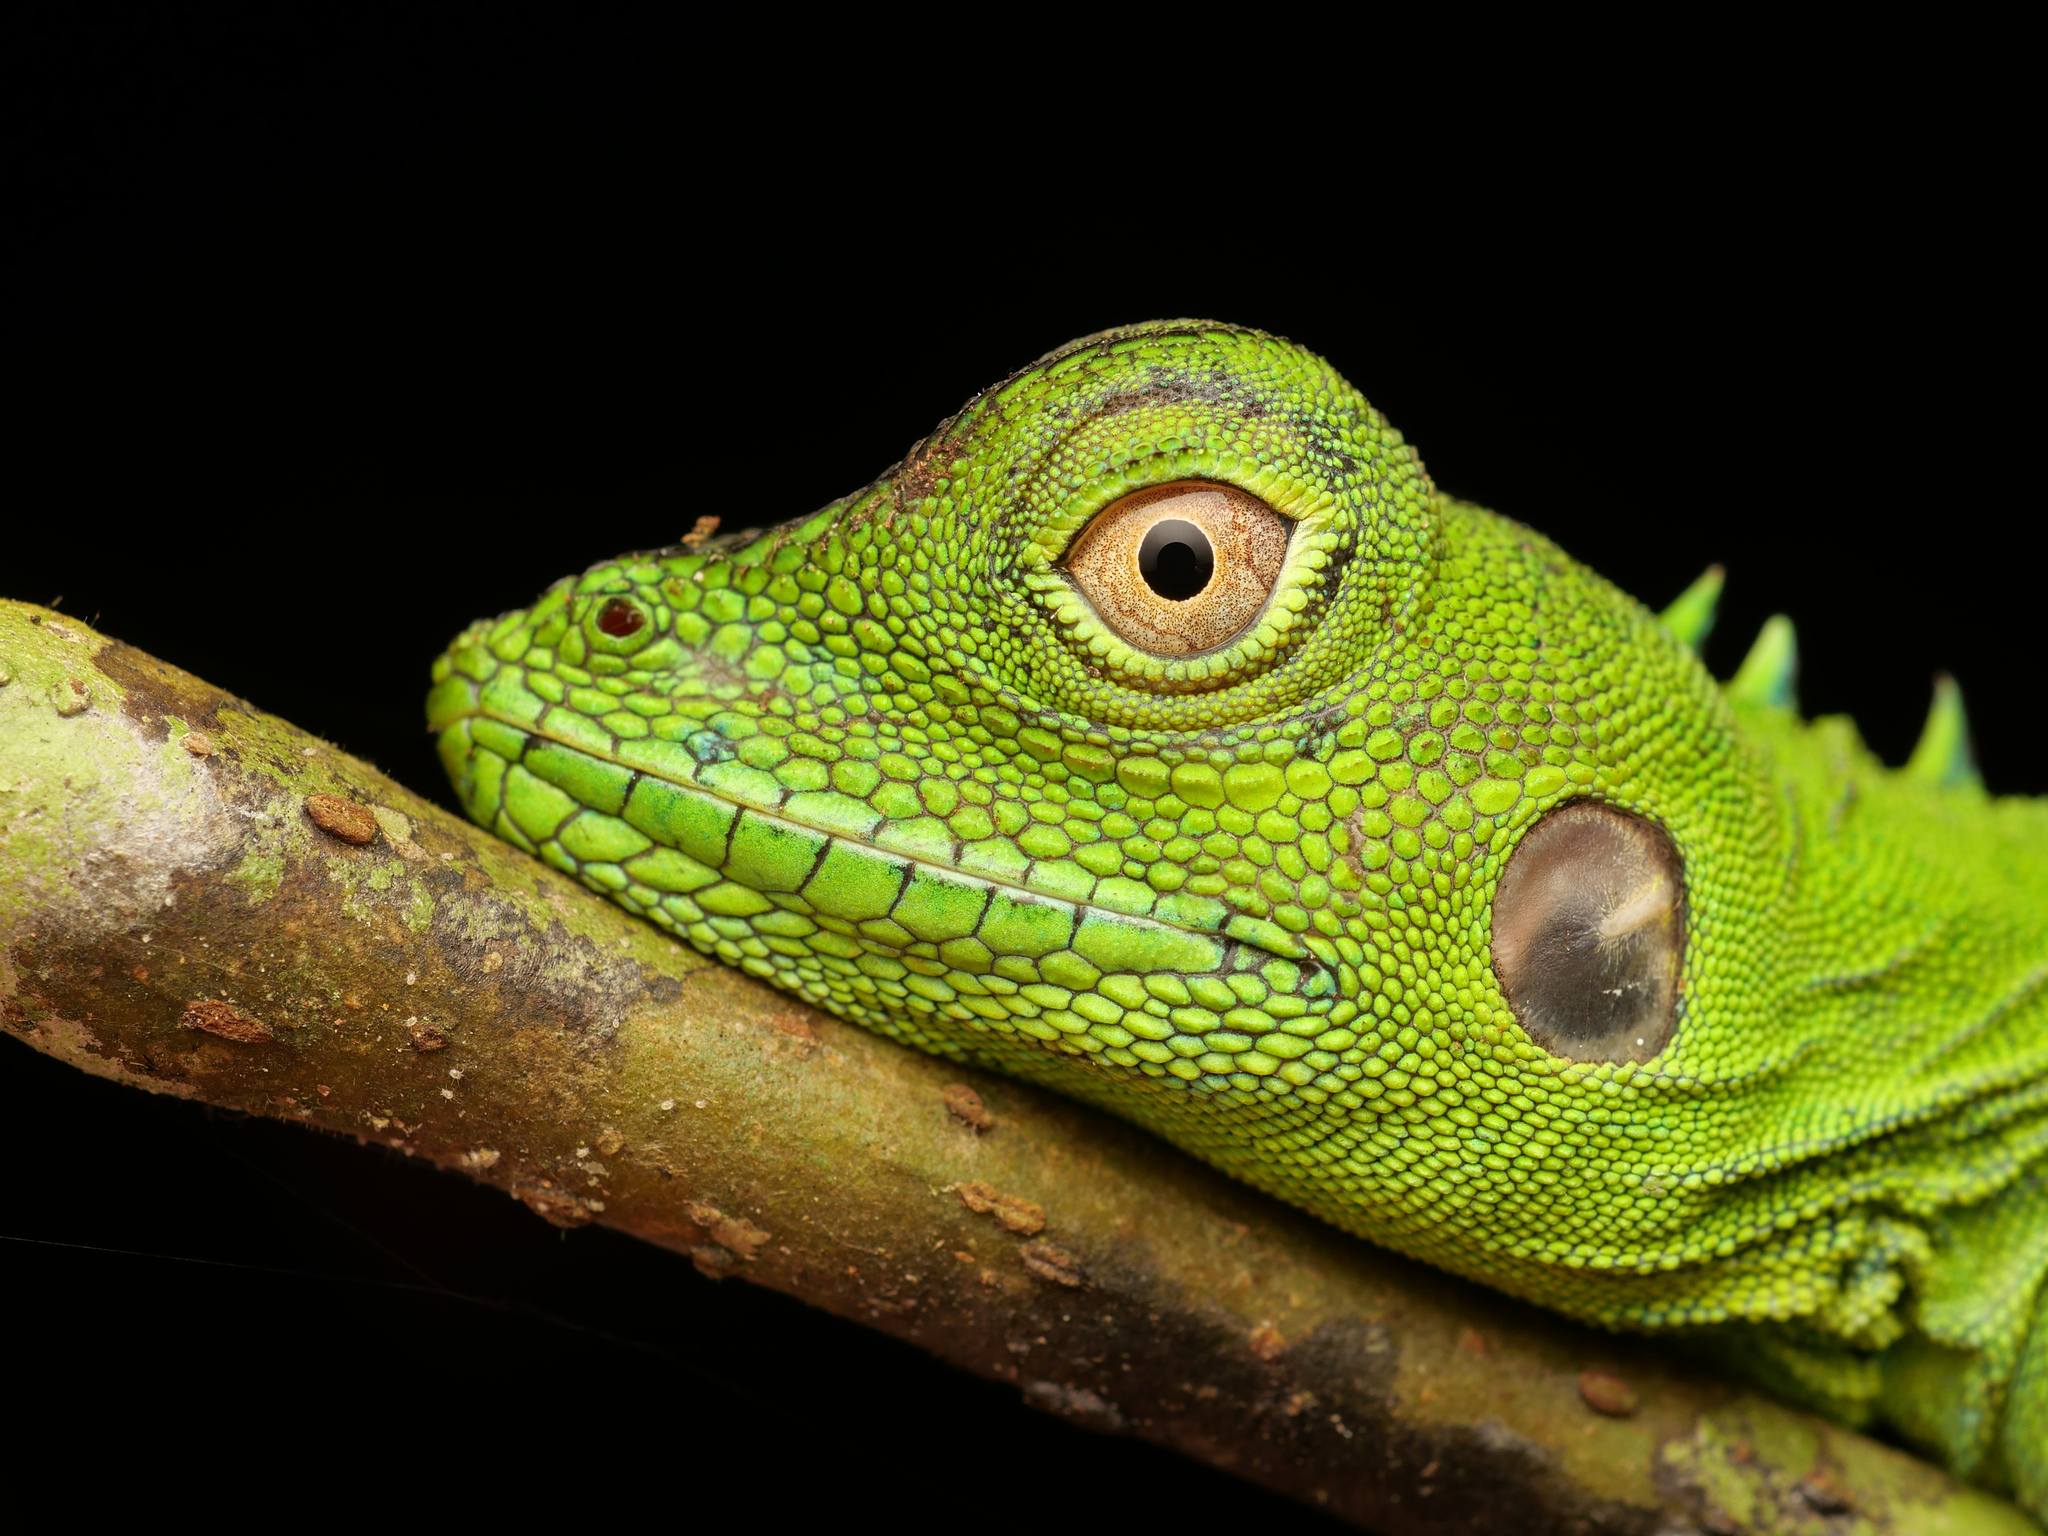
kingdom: Animalia
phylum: Chordata
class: Squamata
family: Agamidae
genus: Hypsilurus
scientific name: Hypsilurus modestus
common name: Modest forest dragon
